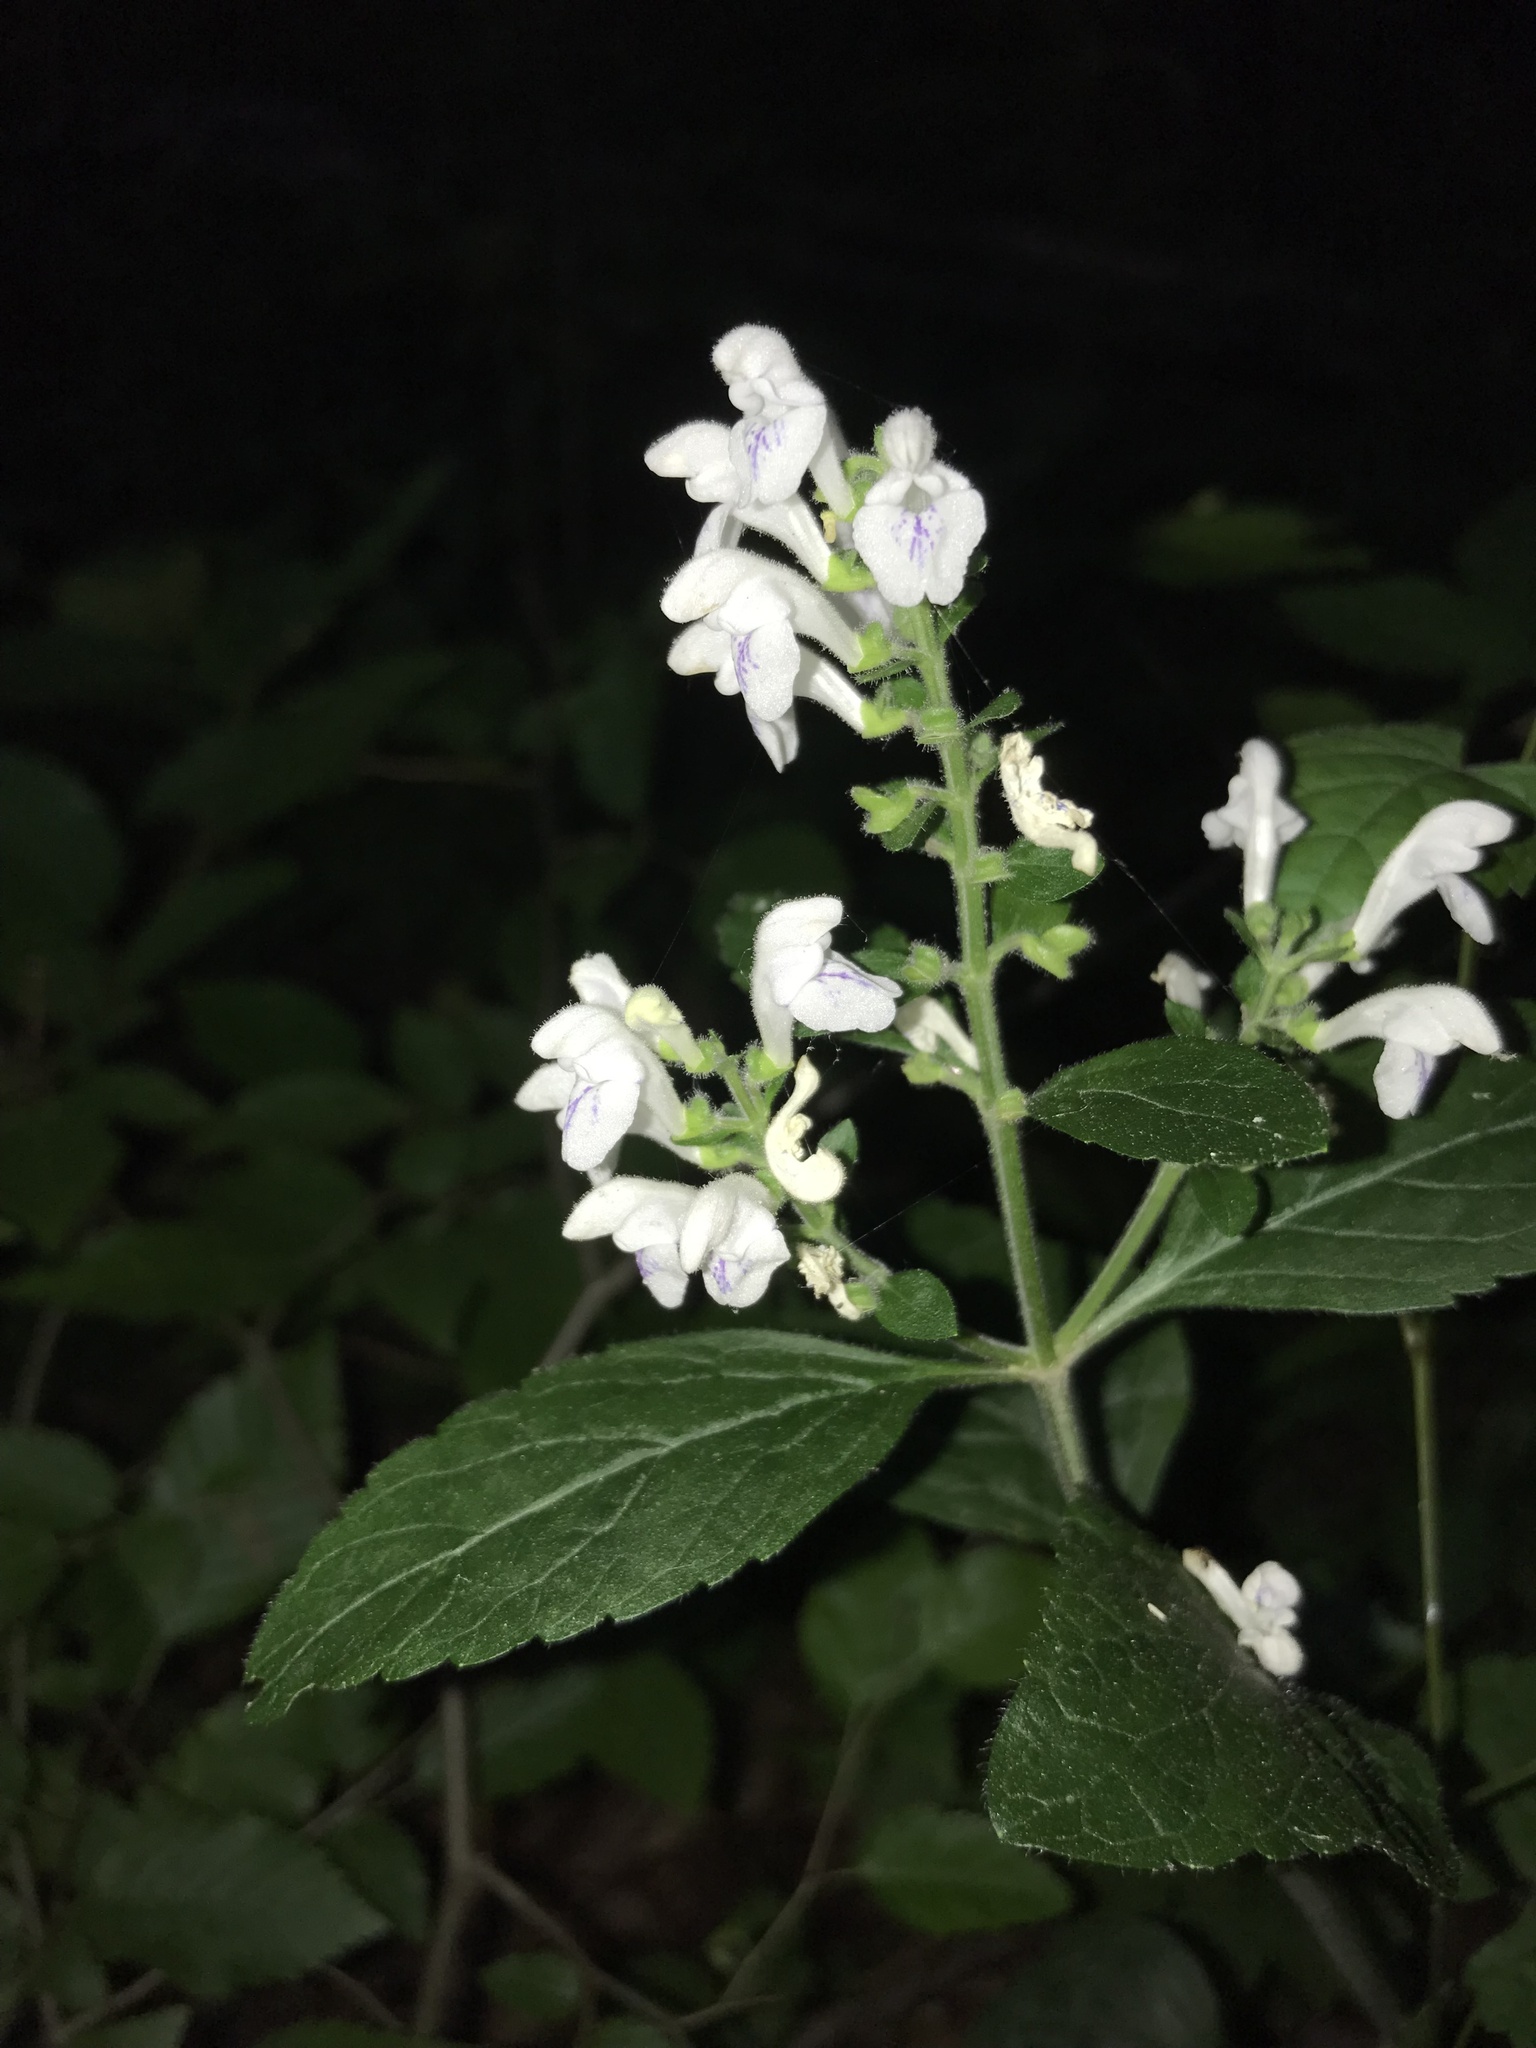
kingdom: Plantae
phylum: Tracheophyta
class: Magnoliopsida
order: Lamiales
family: Lamiaceae
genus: Scutellaria
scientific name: Scutellaria elliptica
